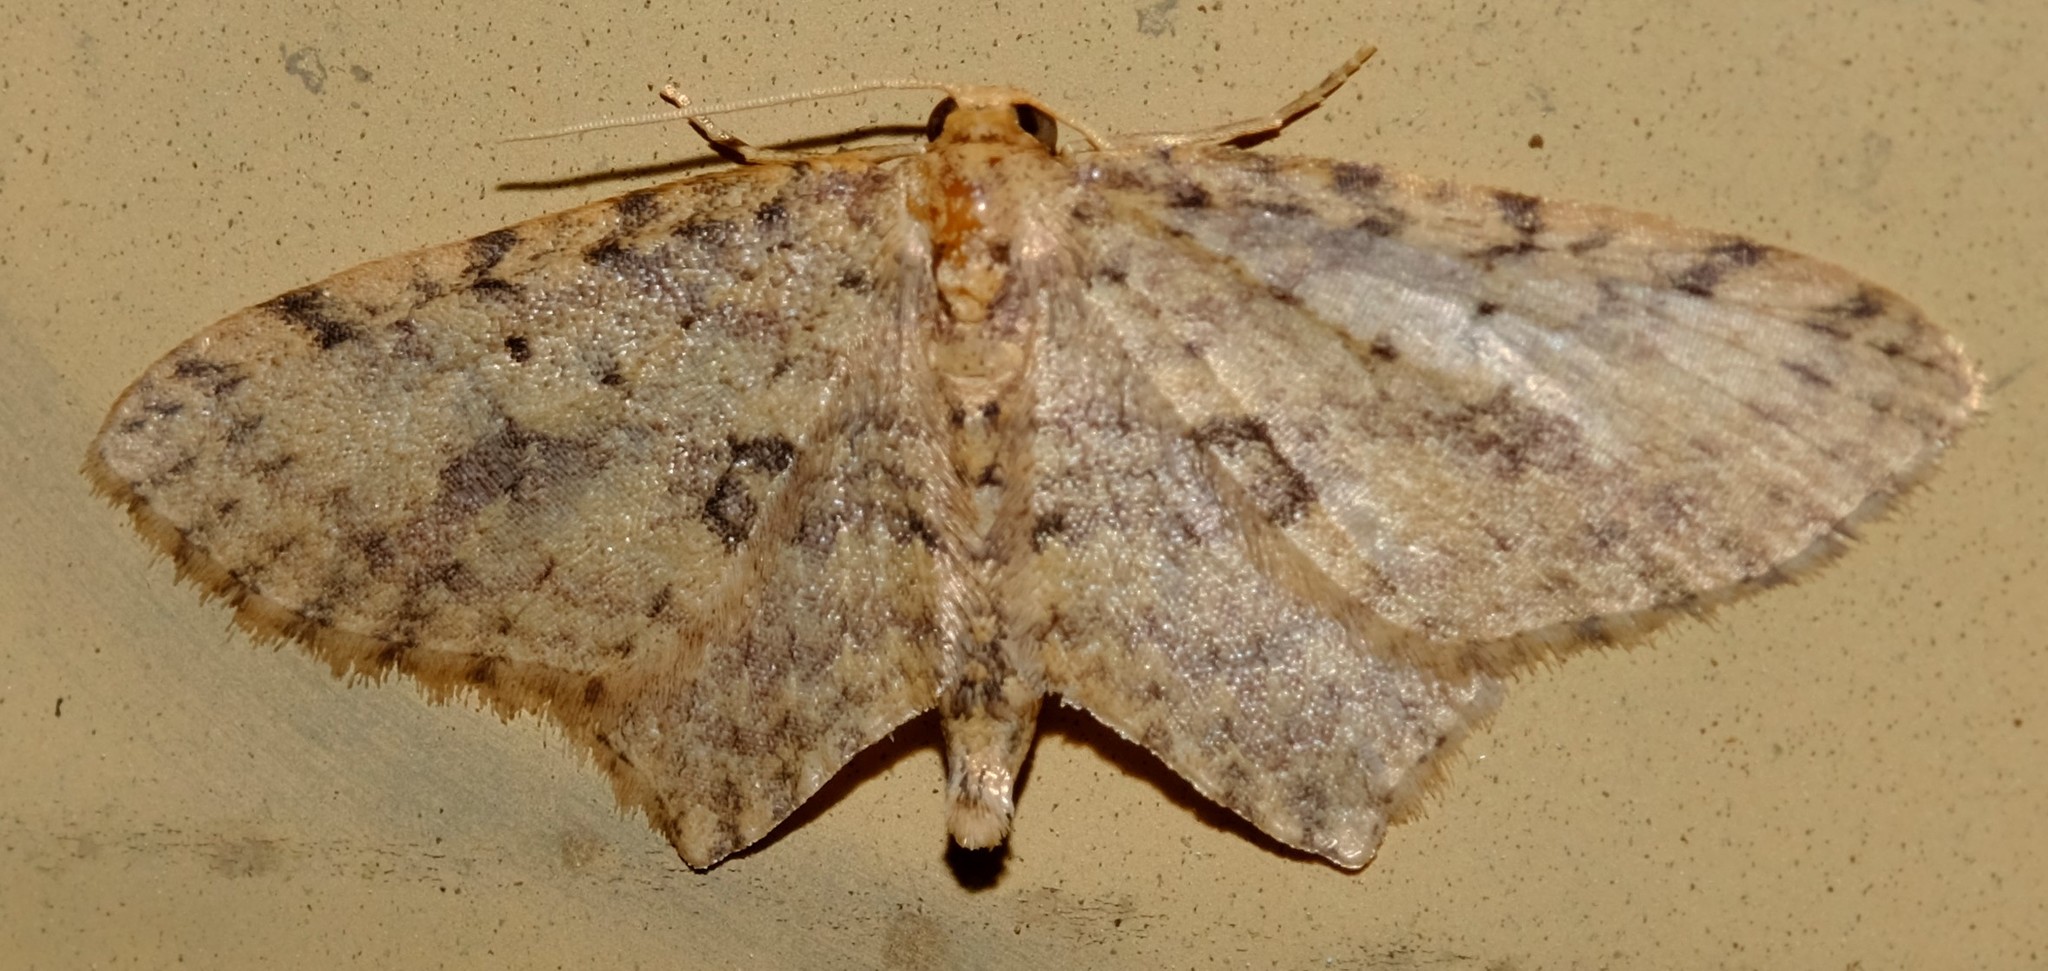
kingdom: Animalia
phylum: Arthropoda
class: Insecta
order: Lepidoptera
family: Geometridae
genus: Poecilasthena
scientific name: Poecilasthena scoliota
